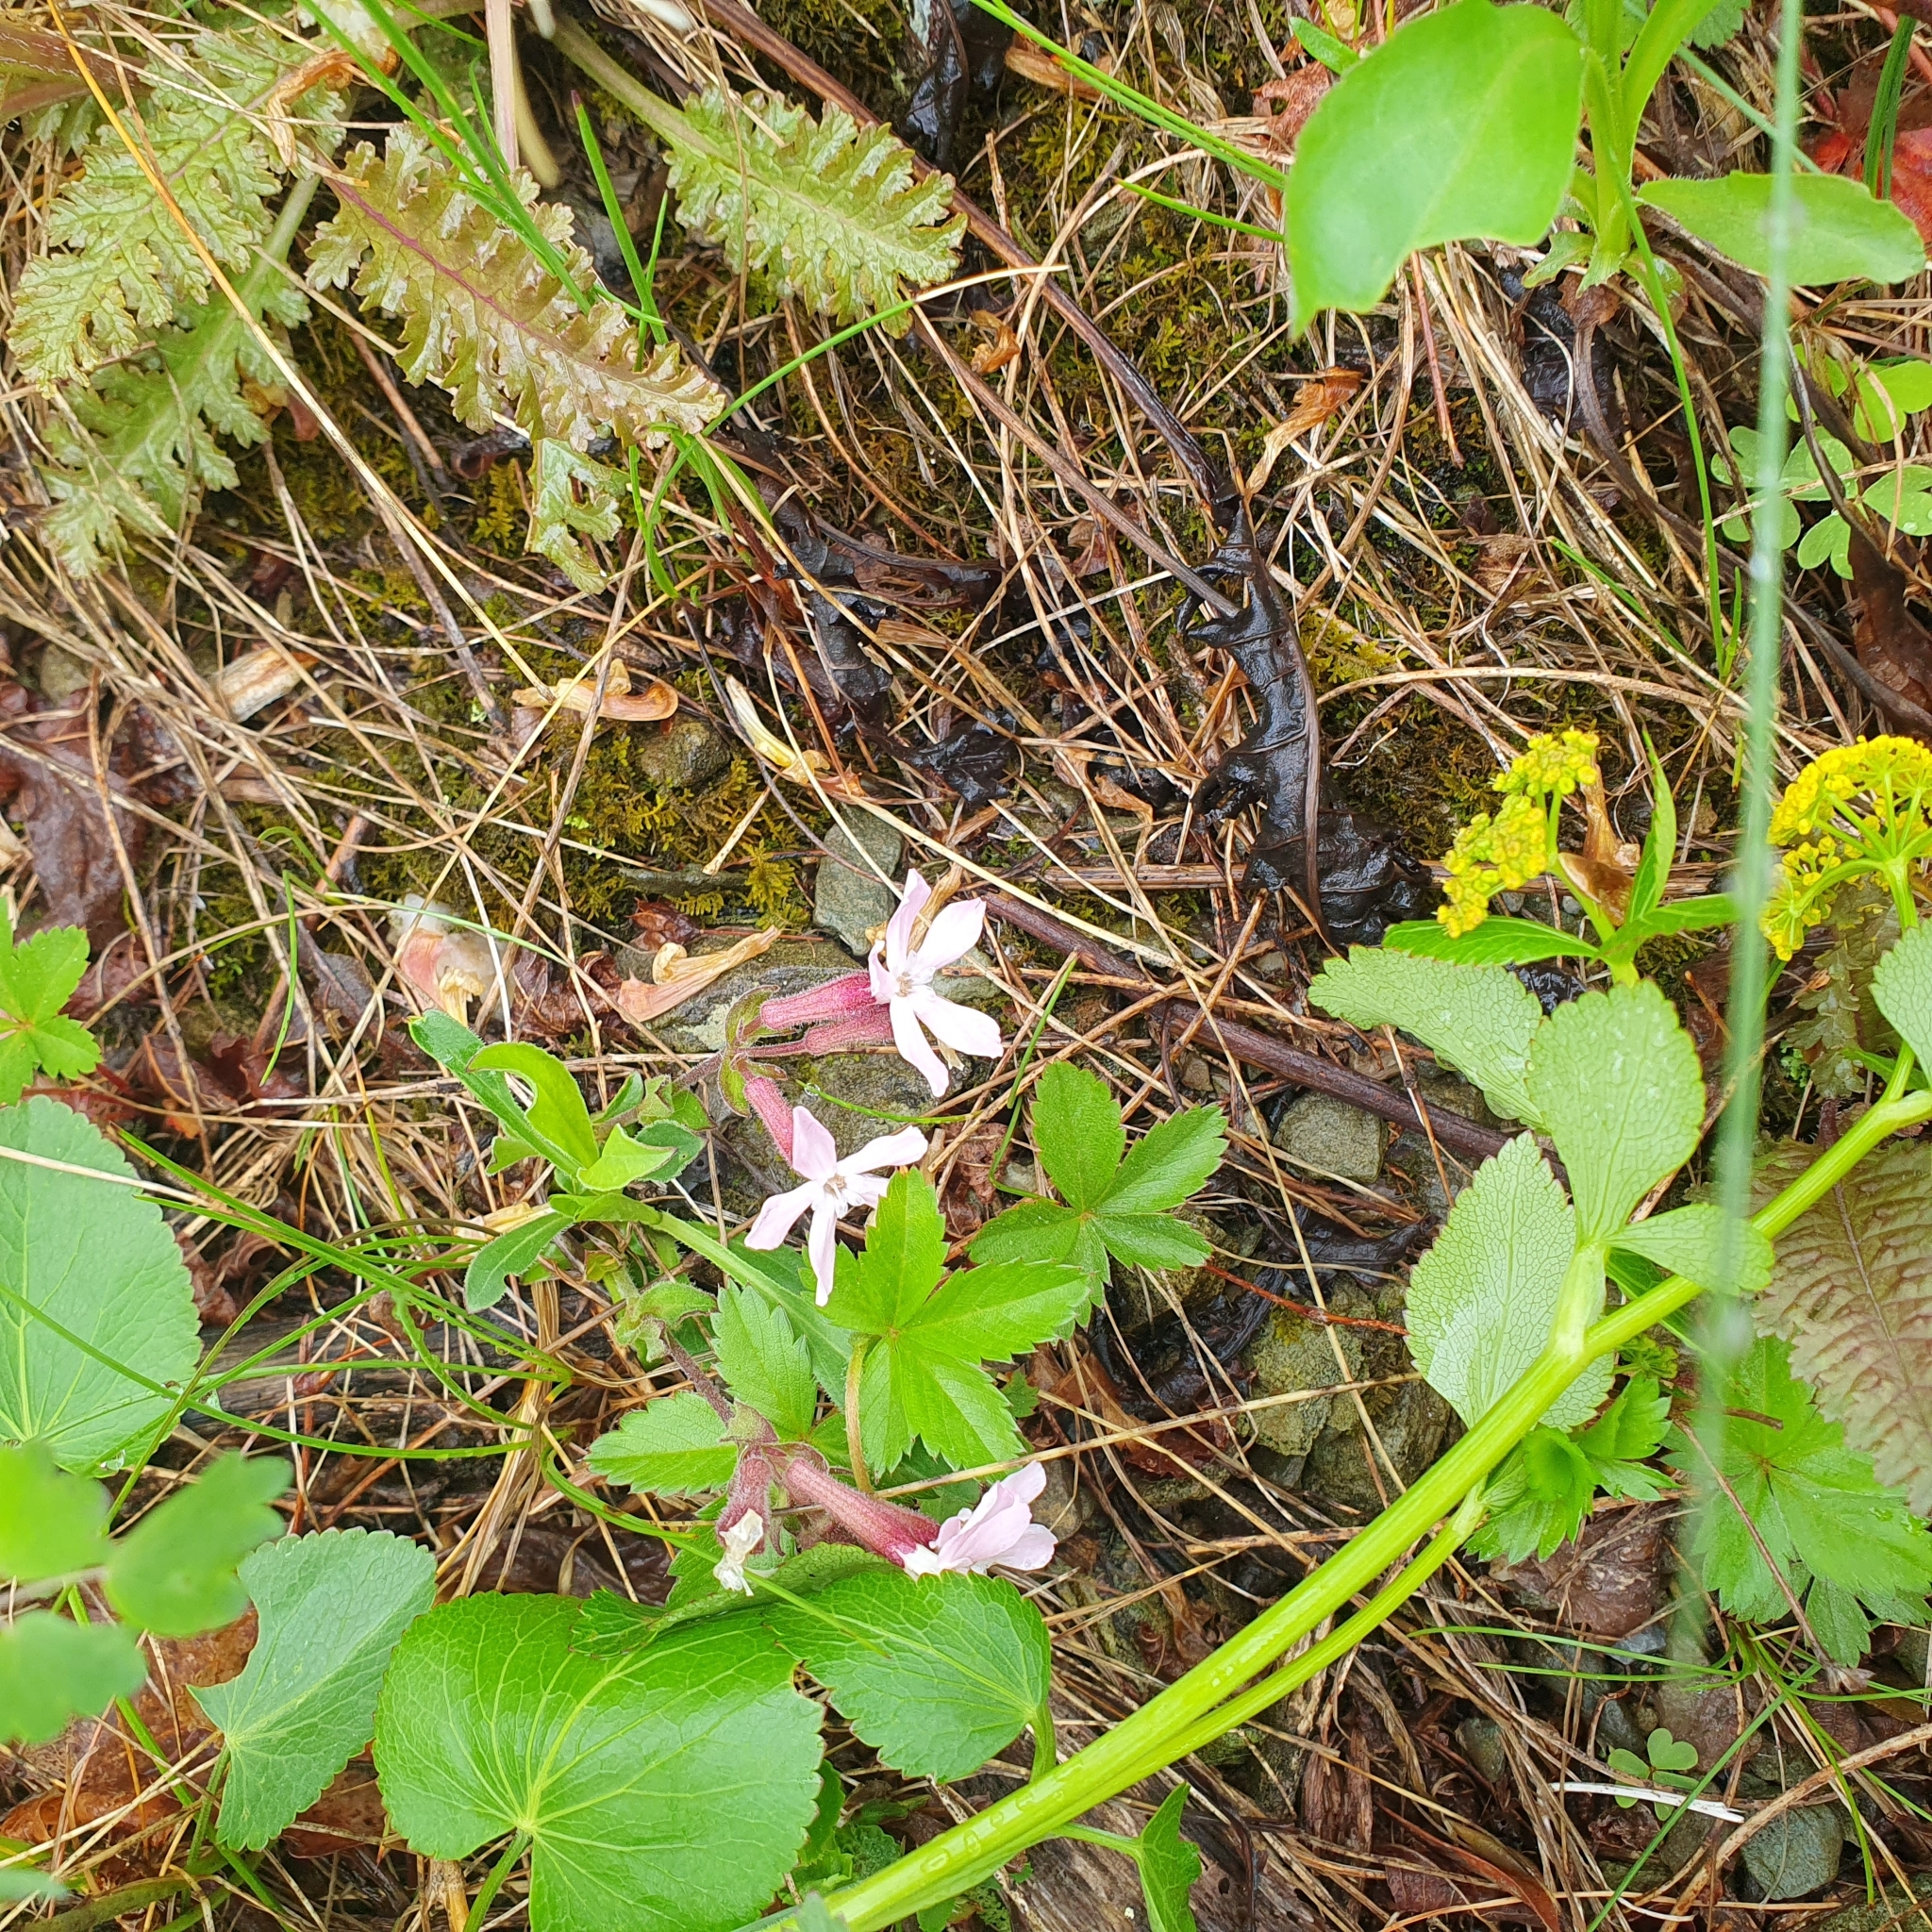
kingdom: Plantae
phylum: Tracheophyta
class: Magnoliopsida
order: Caryophyllales
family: Caryophyllaceae
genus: Silene
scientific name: Silene caroliniana
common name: Sticky catchfly
